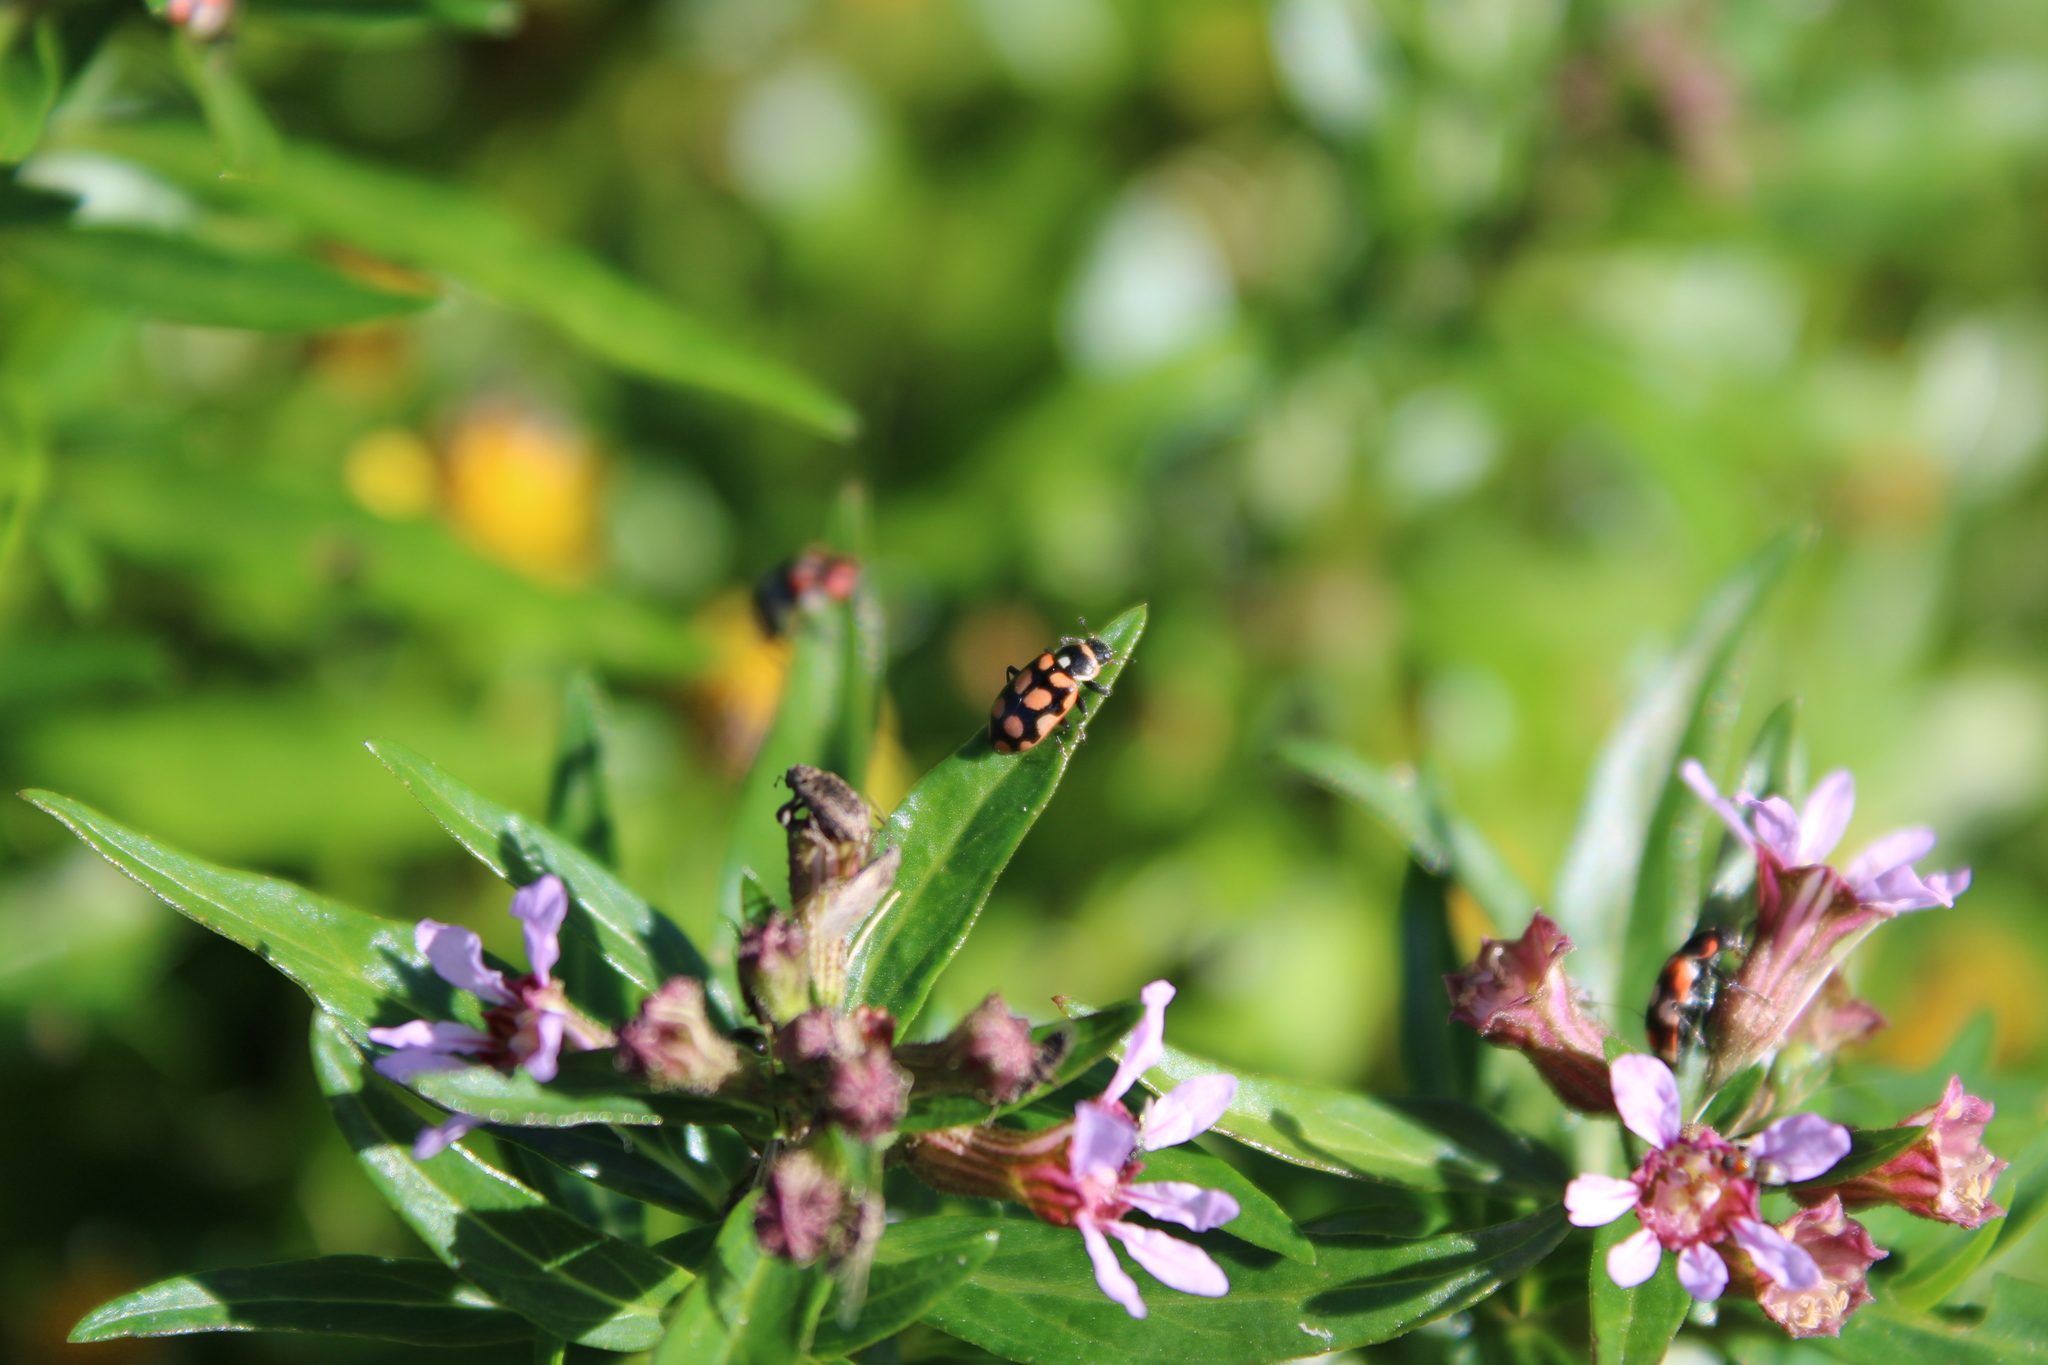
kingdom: Animalia
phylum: Arthropoda
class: Insecta
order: Coleoptera
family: Coccinellidae
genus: Eriopis
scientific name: Eriopis
